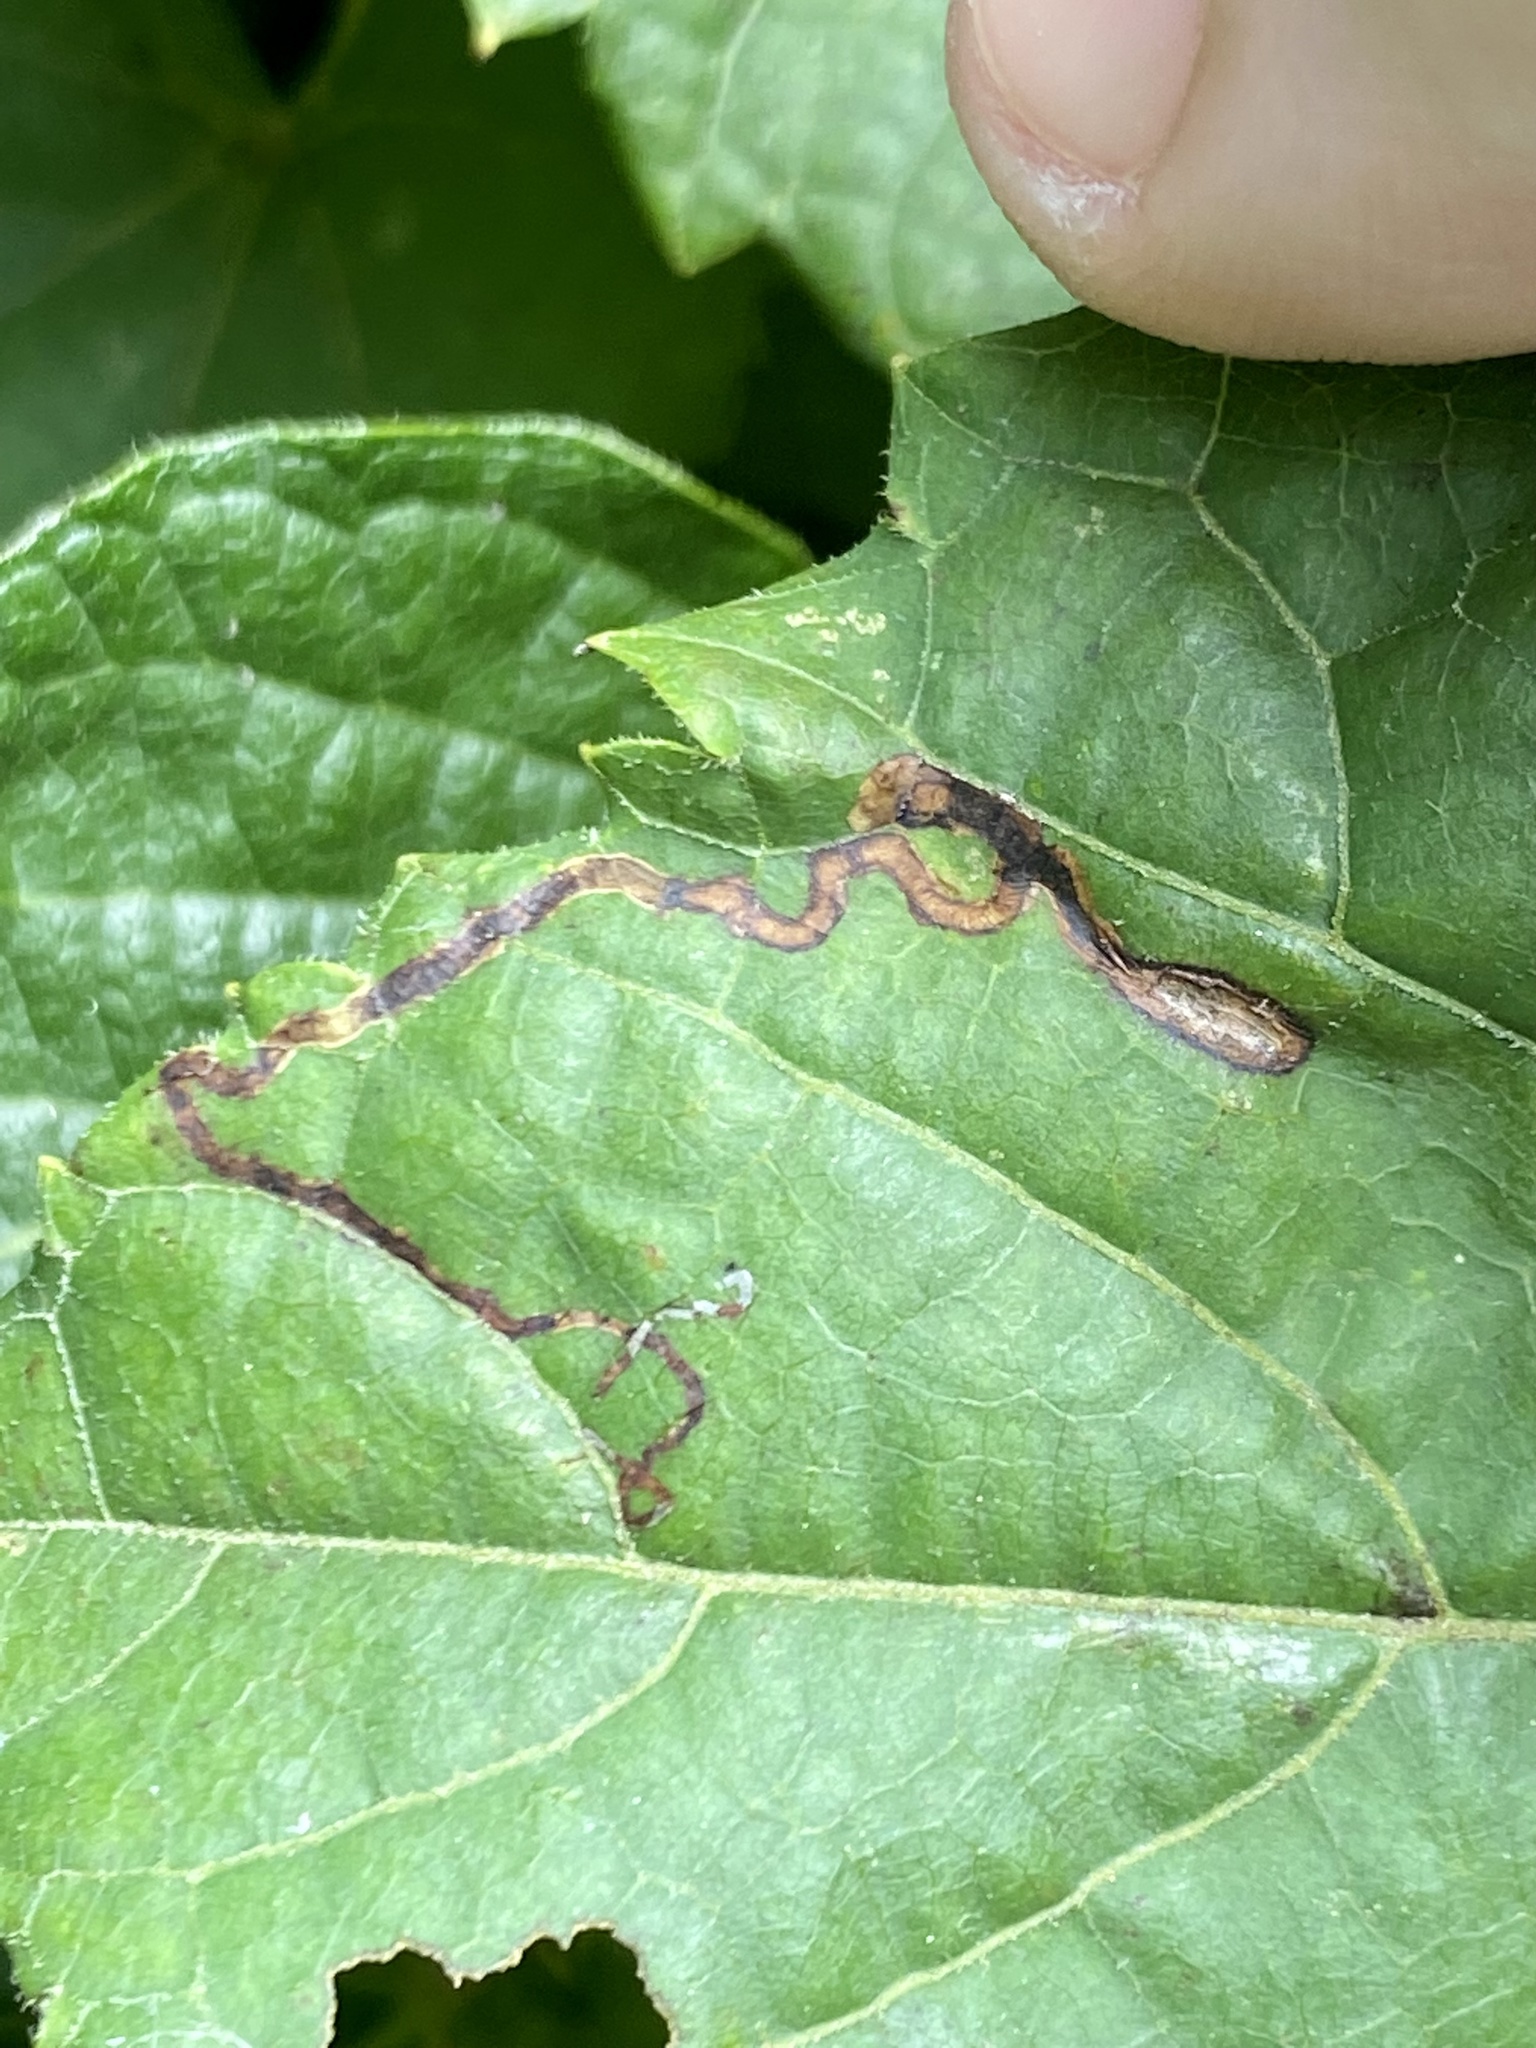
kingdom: Animalia
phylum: Arthropoda
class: Insecta
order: Lepidoptera
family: Gracillariidae
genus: Phyllocnistis
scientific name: Phyllocnistis vitifoliella
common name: Grape leaf-miner moth
